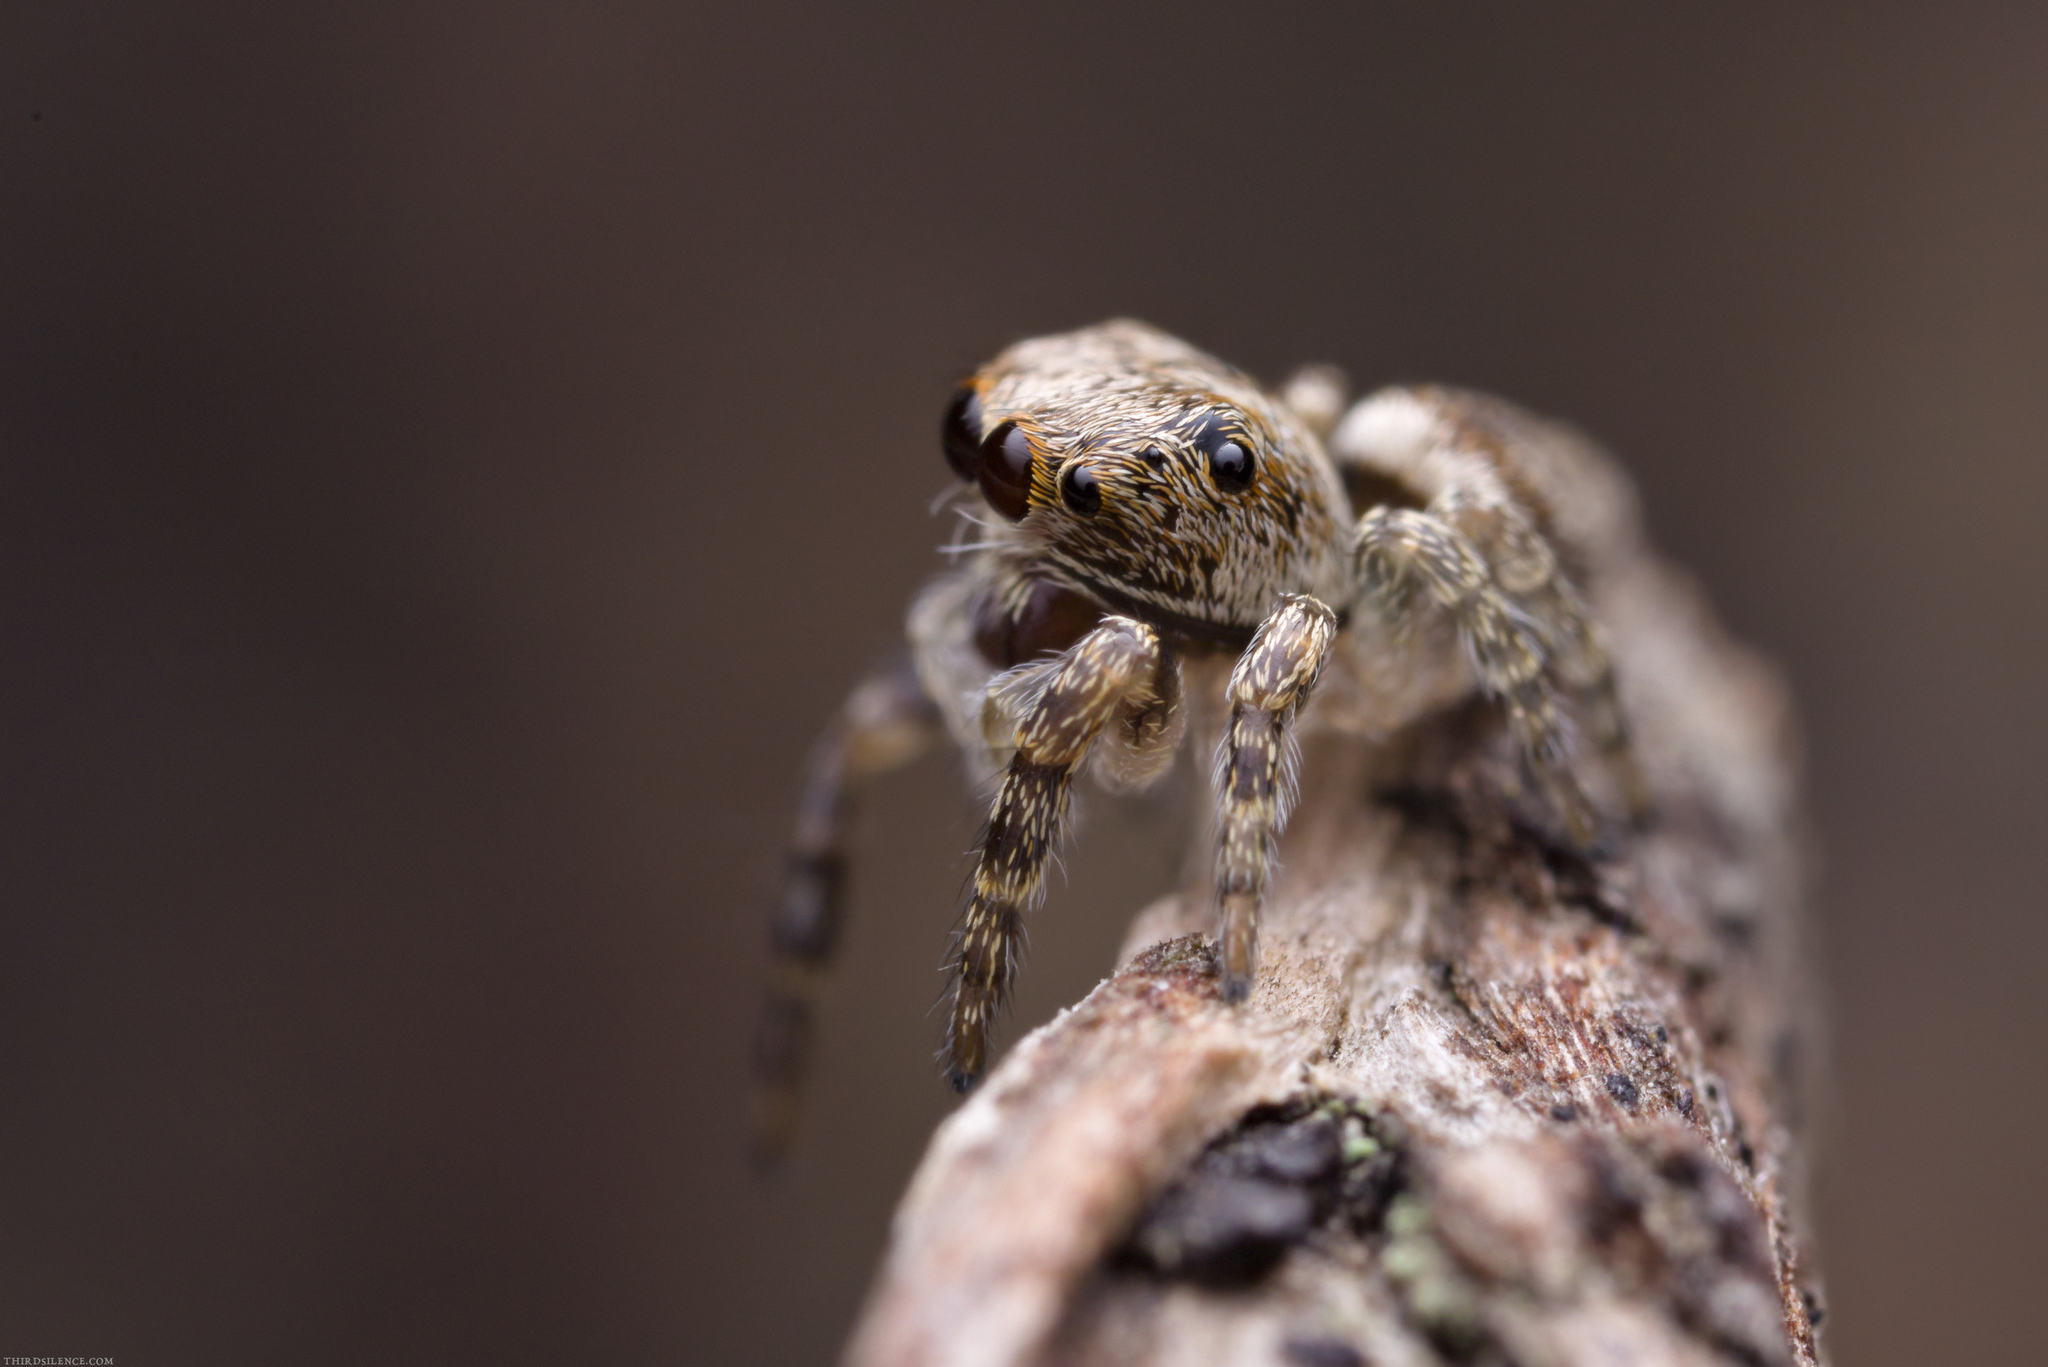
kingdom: Animalia
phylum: Arthropoda
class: Arachnida
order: Araneae
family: Salticidae
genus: Maratus
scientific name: Maratus scutulatus
